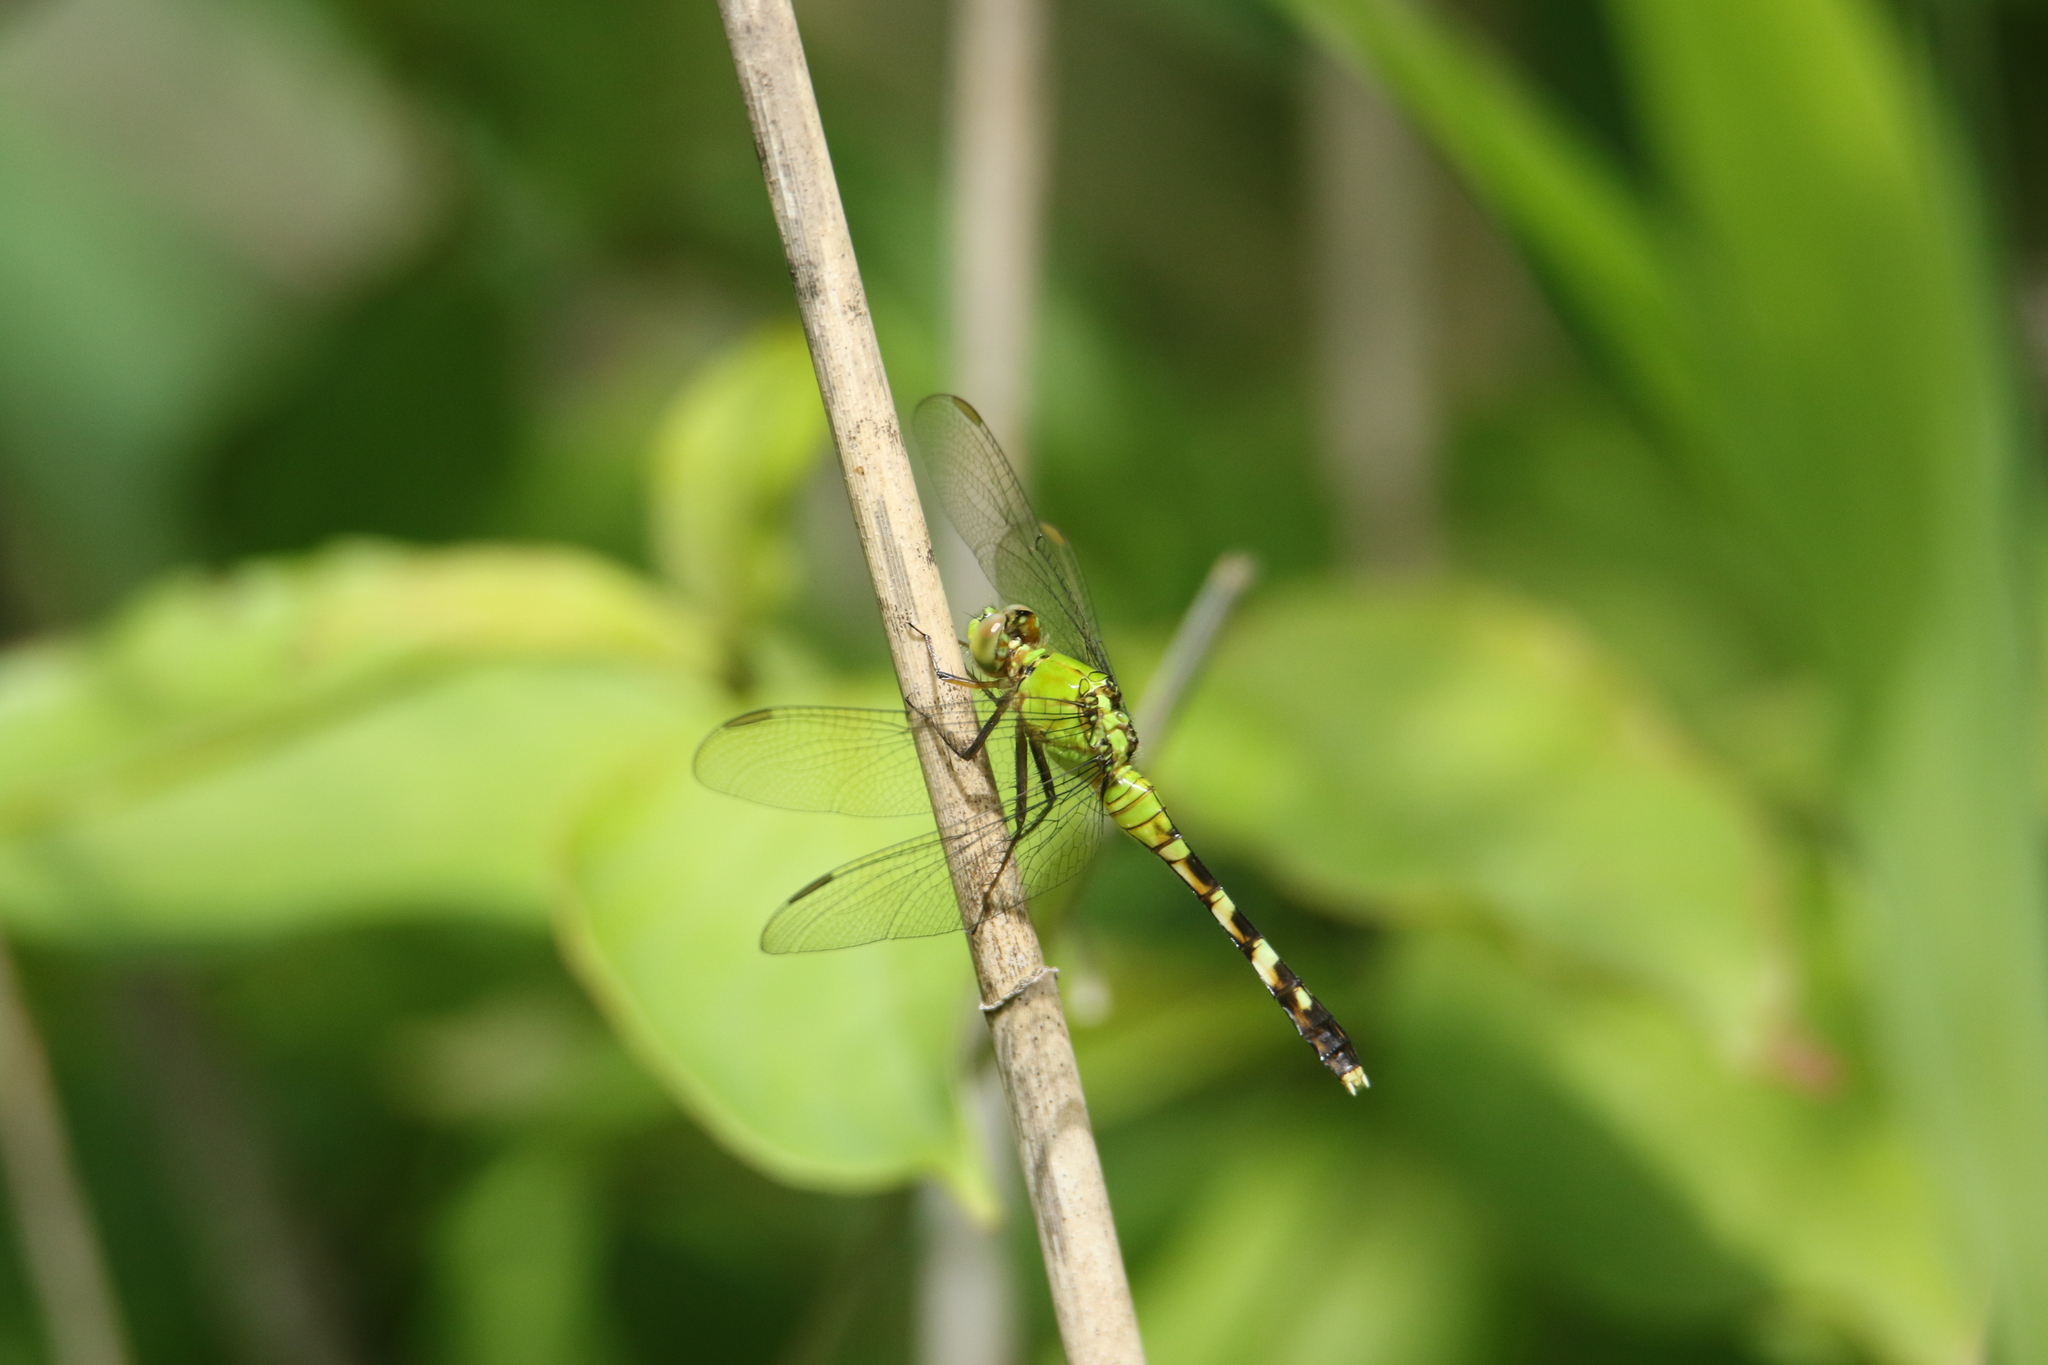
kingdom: Animalia
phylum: Arthropoda
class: Insecta
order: Odonata
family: Libellulidae
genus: Erythemis
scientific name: Erythemis simplicicollis
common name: Eastern pondhawk
